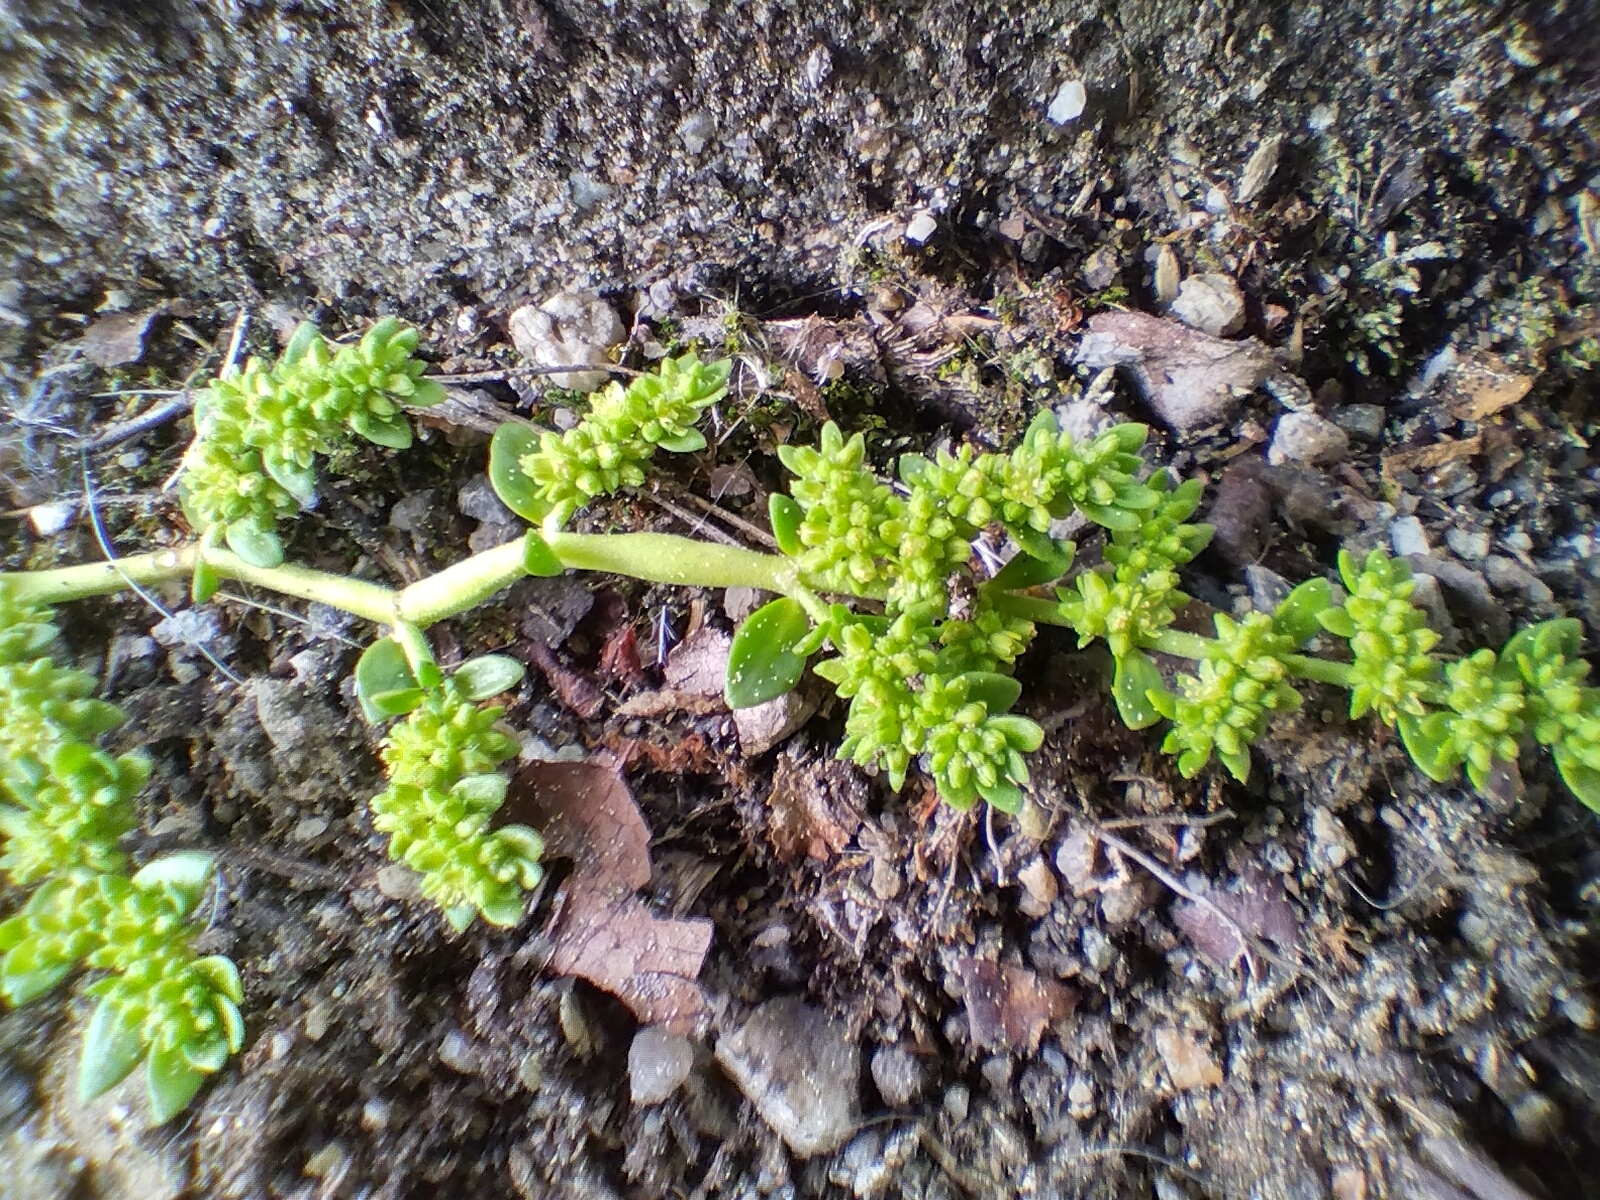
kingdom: Plantae
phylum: Tracheophyta
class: Magnoliopsida
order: Caryophyllales
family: Caryophyllaceae
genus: Herniaria
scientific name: Herniaria glabra
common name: Smooth rupturewort
